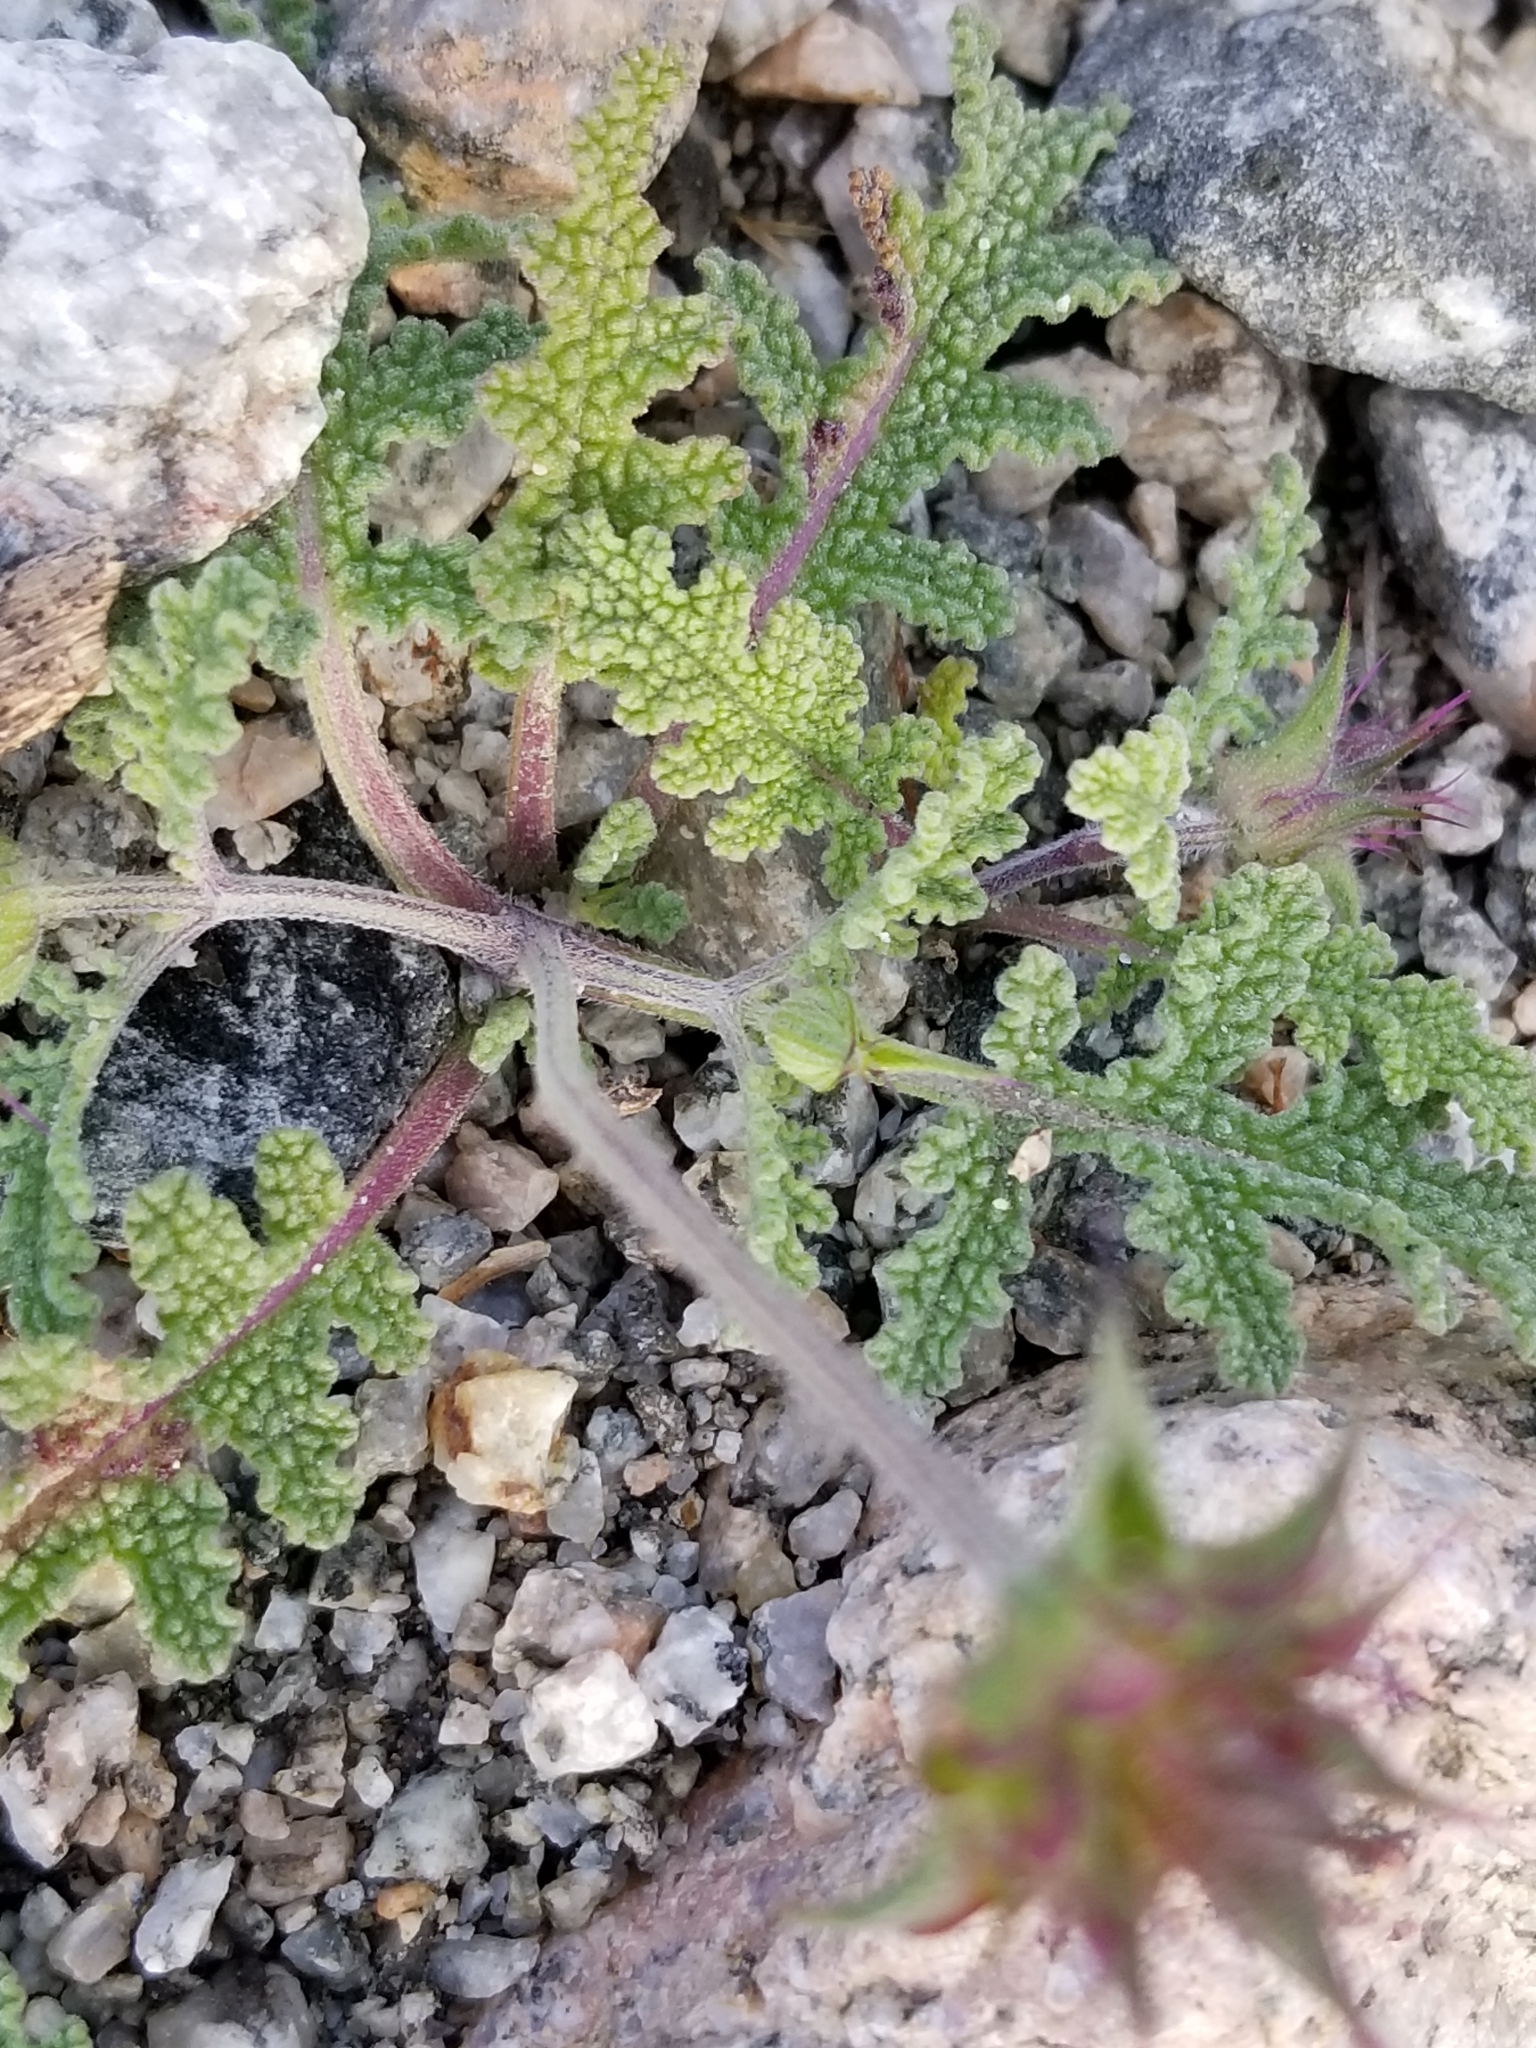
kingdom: Plantae
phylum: Tracheophyta
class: Magnoliopsida
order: Lamiales
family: Lamiaceae
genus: Salvia
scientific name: Salvia columbariae
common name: Chia
